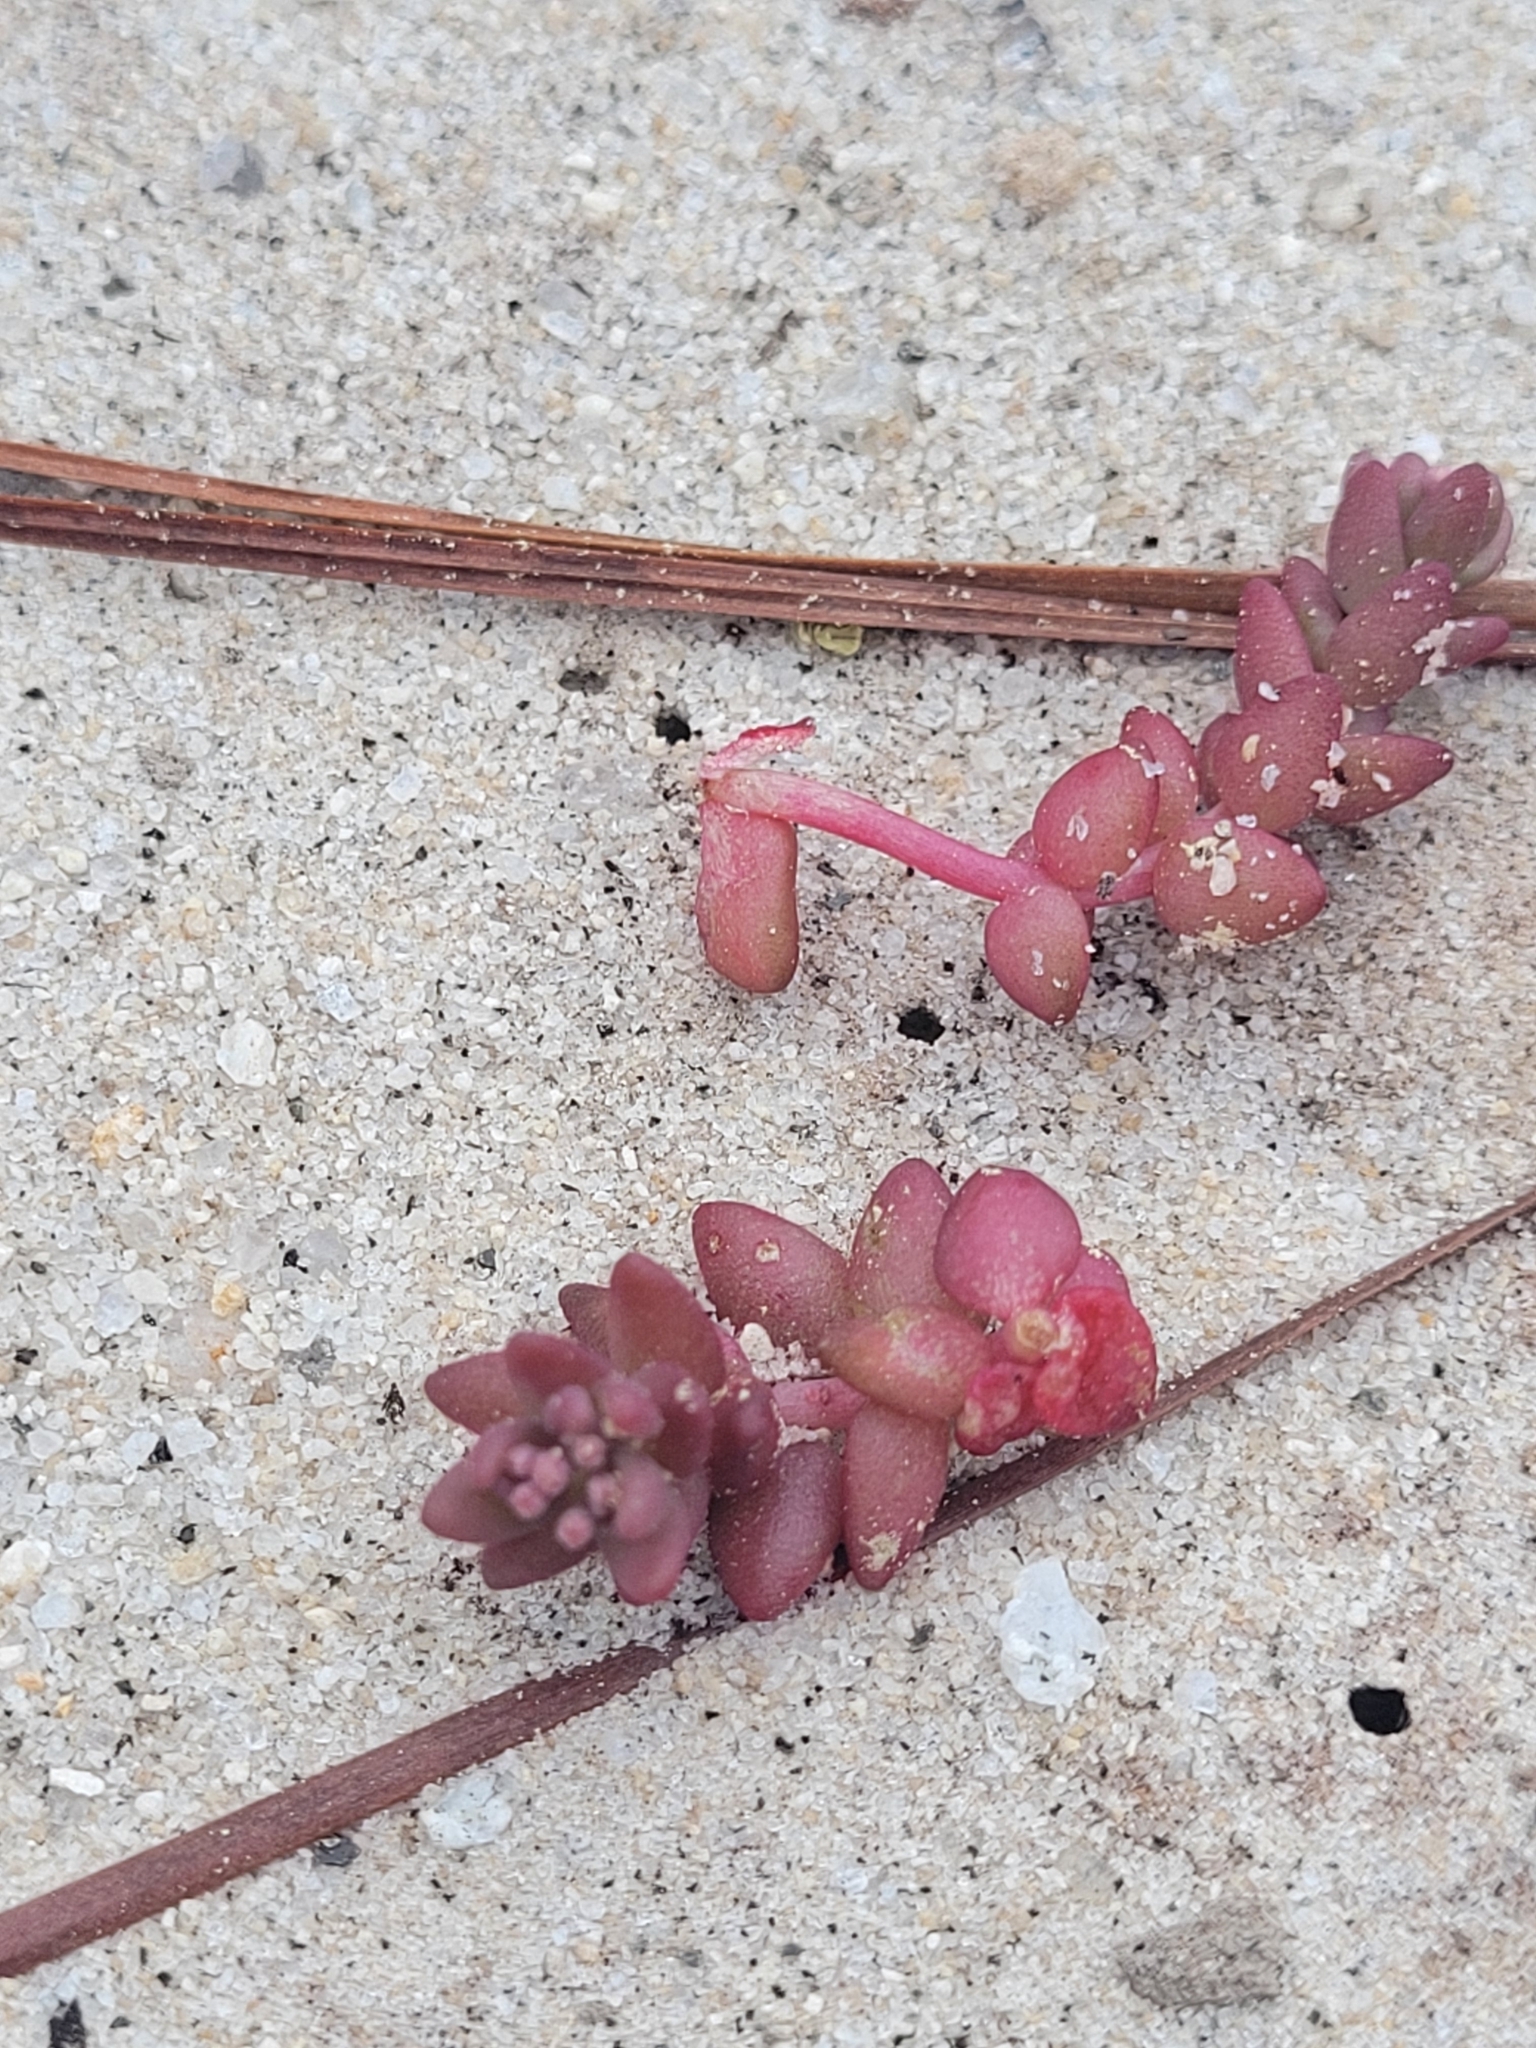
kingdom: Plantae
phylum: Tracheophyta
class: Magnoliopsida
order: Saxifragales
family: Crassulaceae
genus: Sedum
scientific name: Sedum smallii
